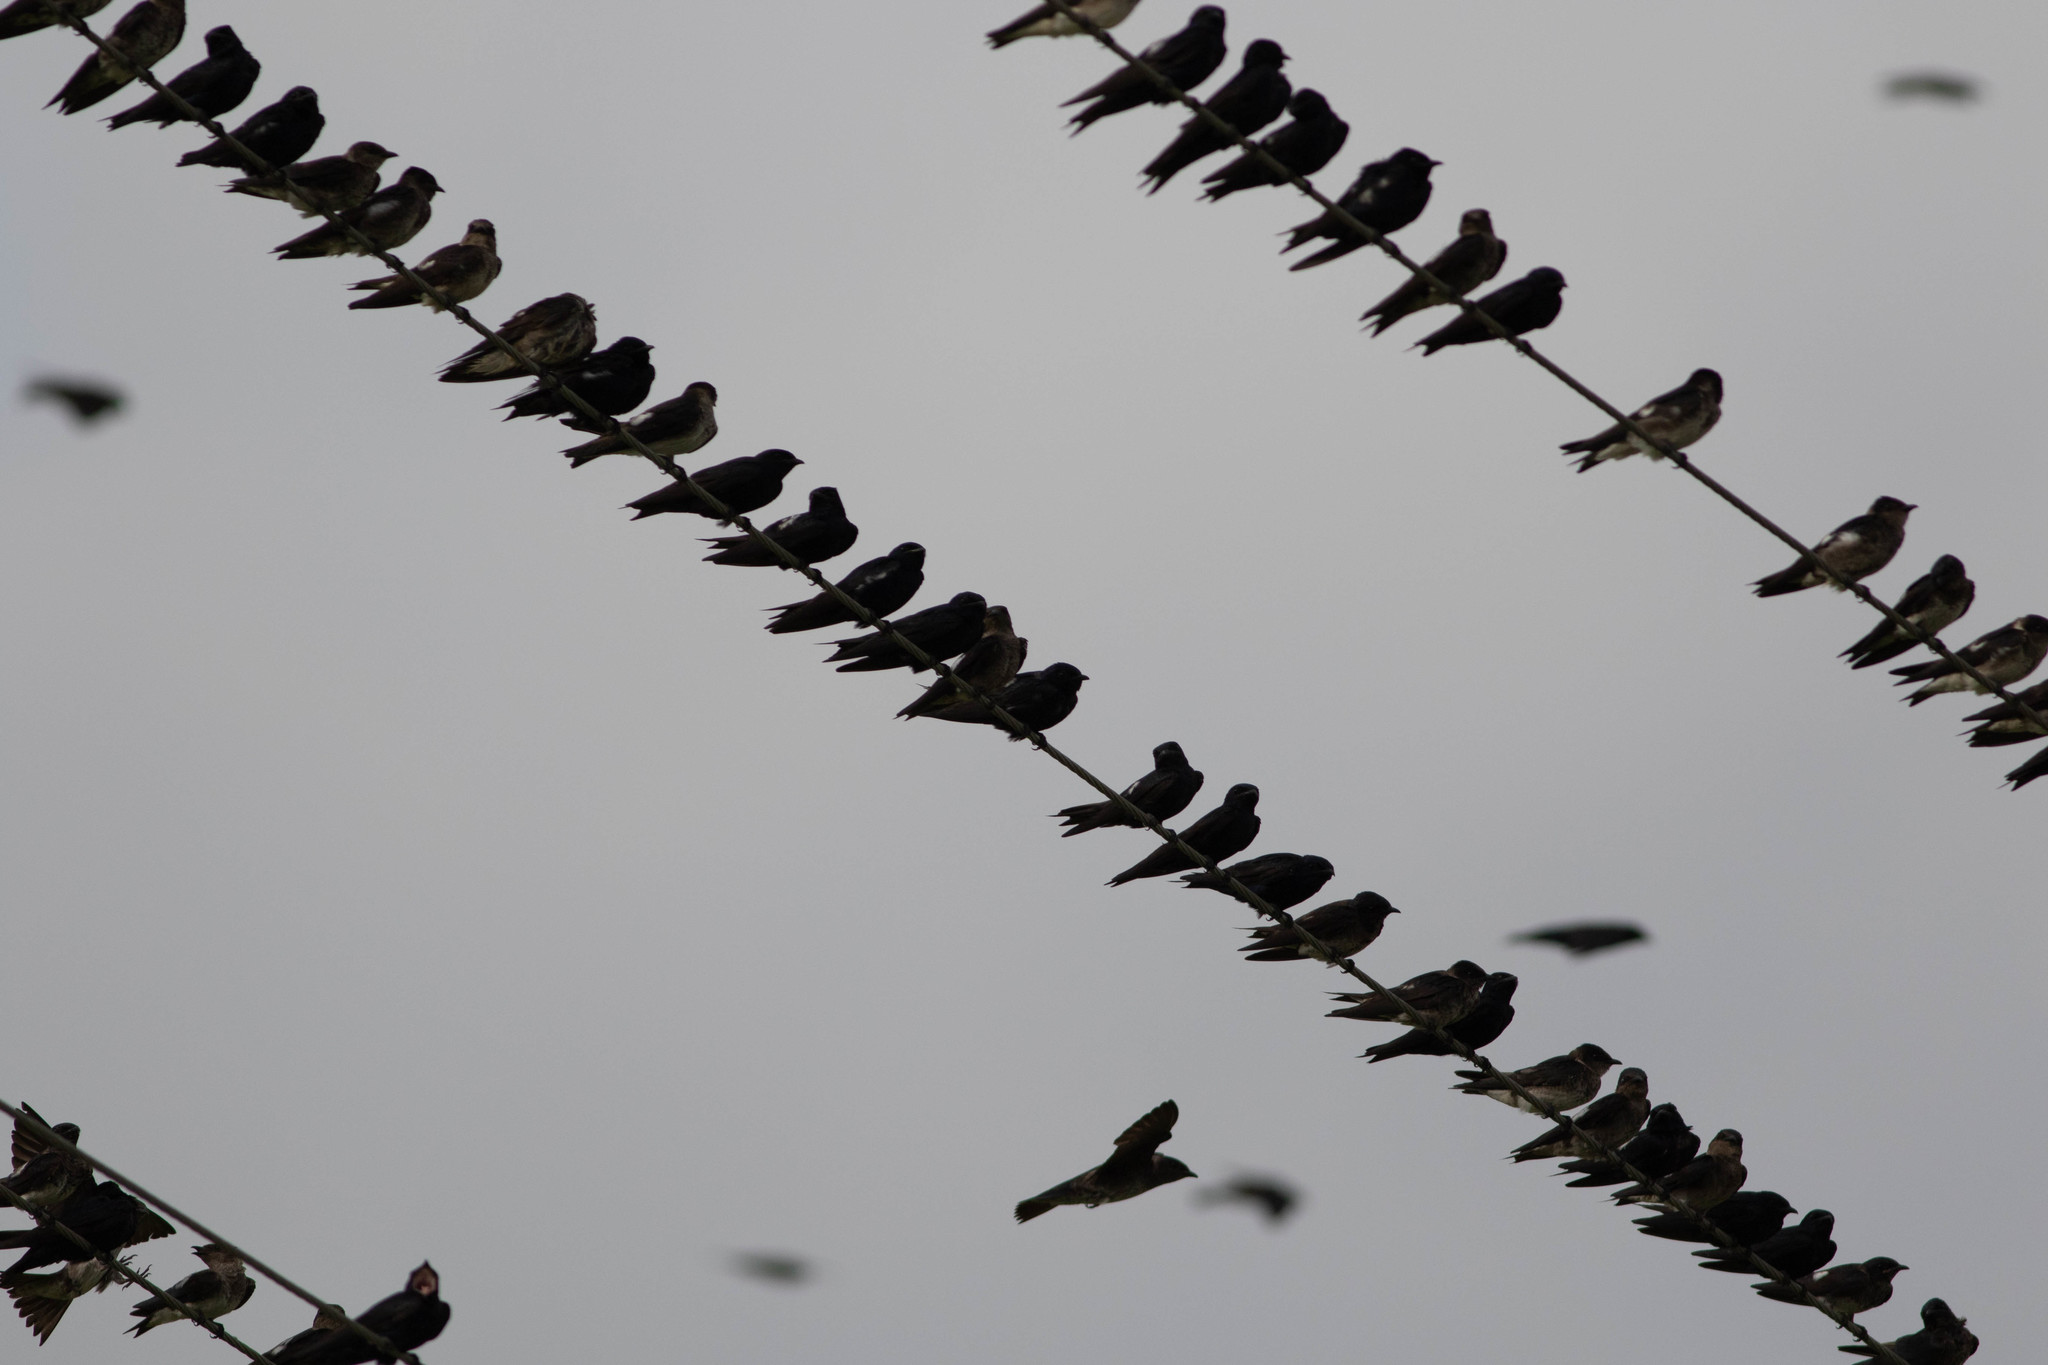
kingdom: Animalia
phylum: Chordata
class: Aves
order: Passeriformes
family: Hirundinidae
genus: Progne
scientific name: Progne subis
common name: Purple martin
